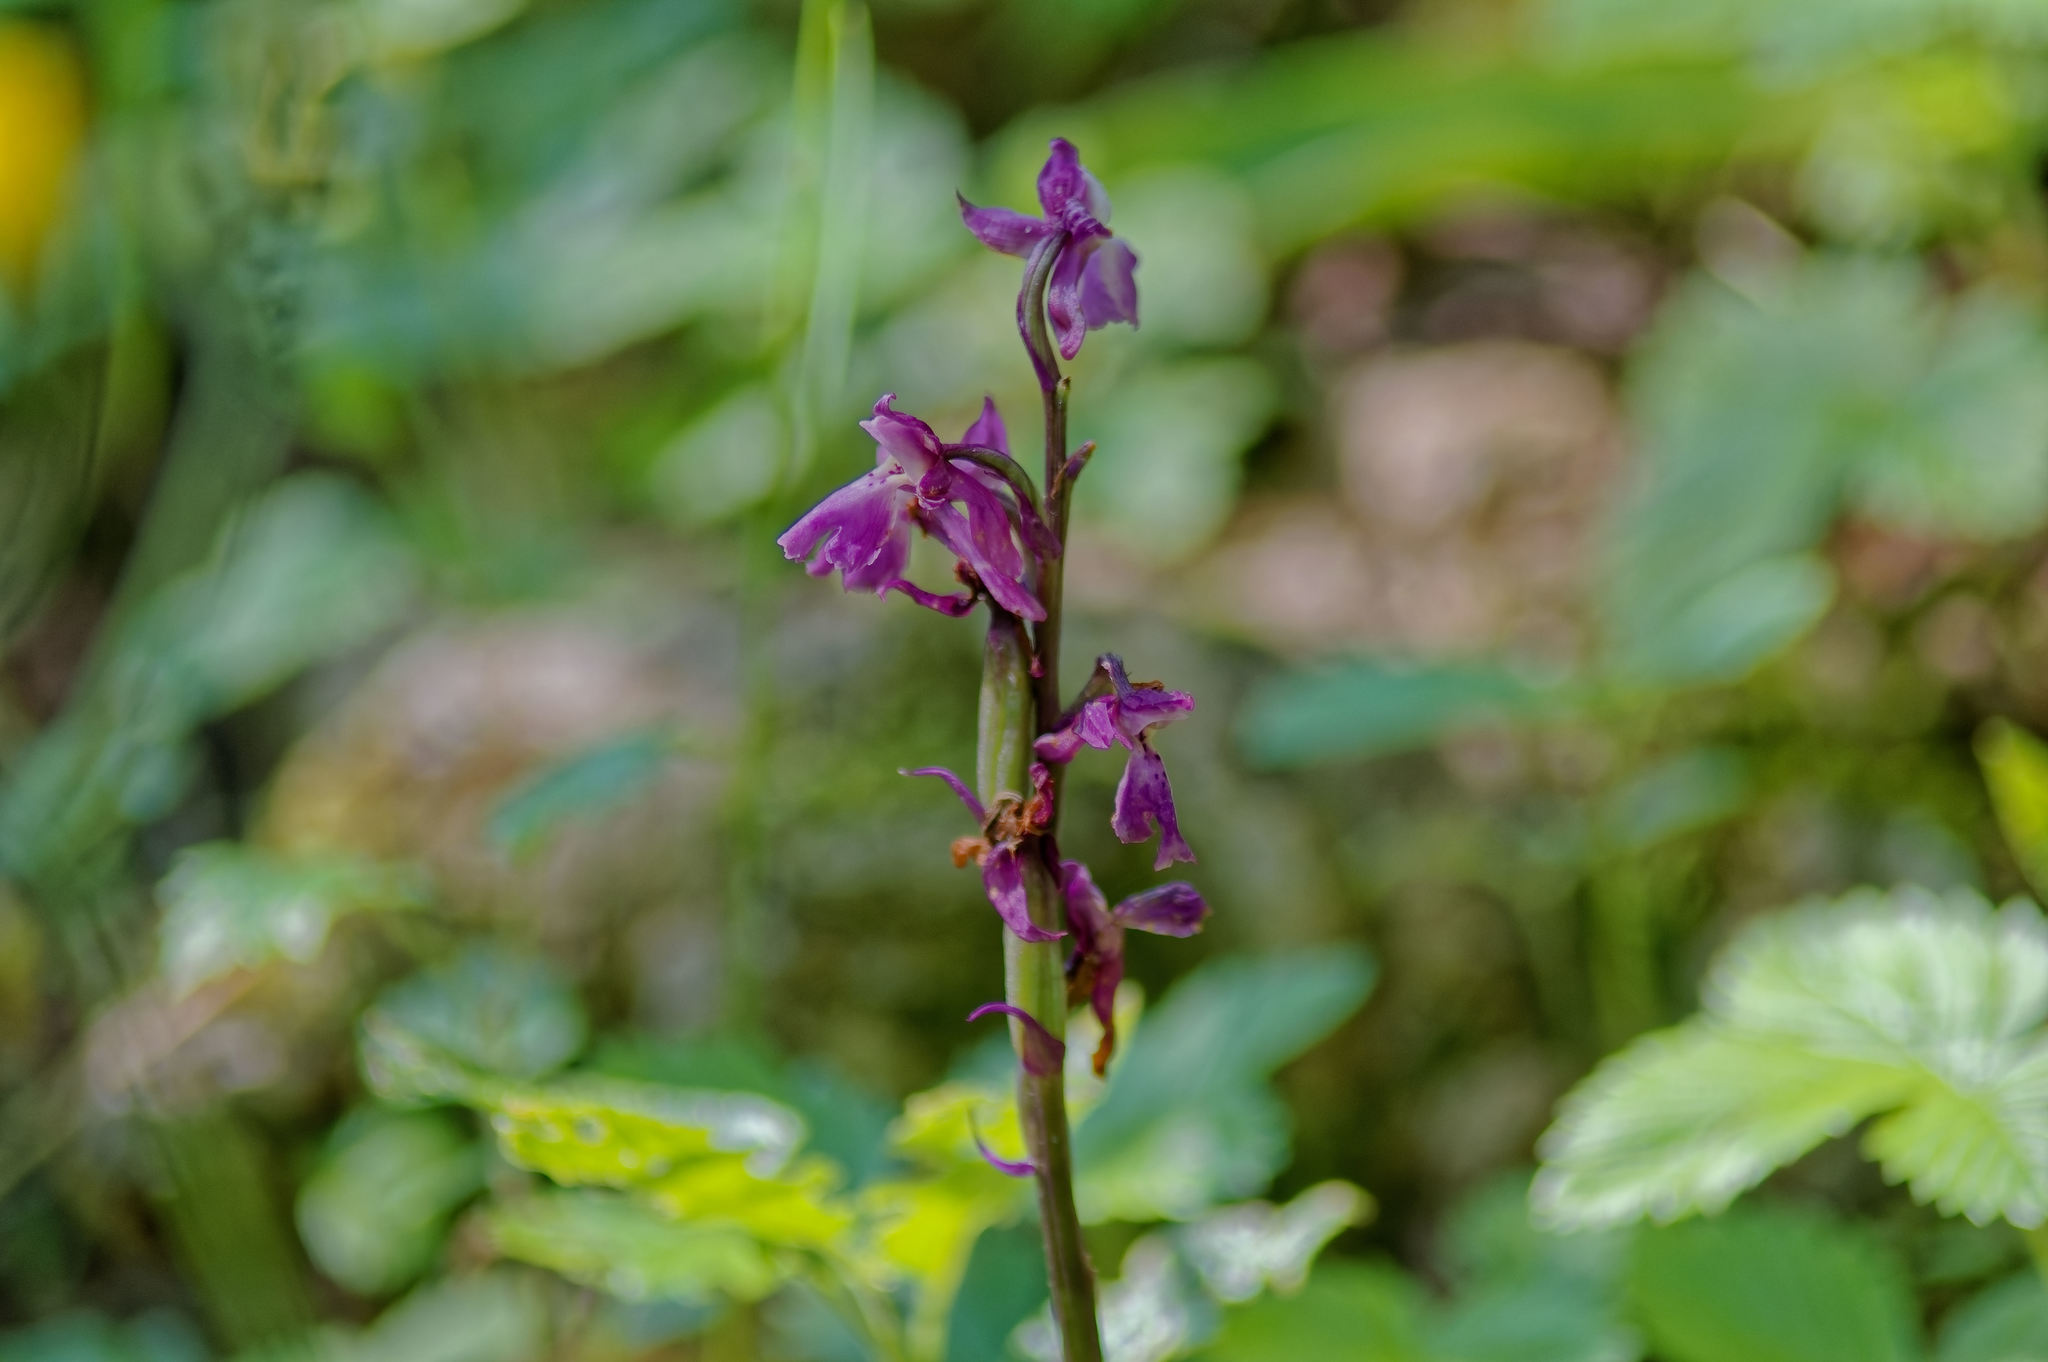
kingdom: Plantae
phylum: Tracheophyta
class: Liliopsida
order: Asparagales
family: Orchidaceae
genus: Orchis
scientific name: Orchis mascula
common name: Early-purple orchid
